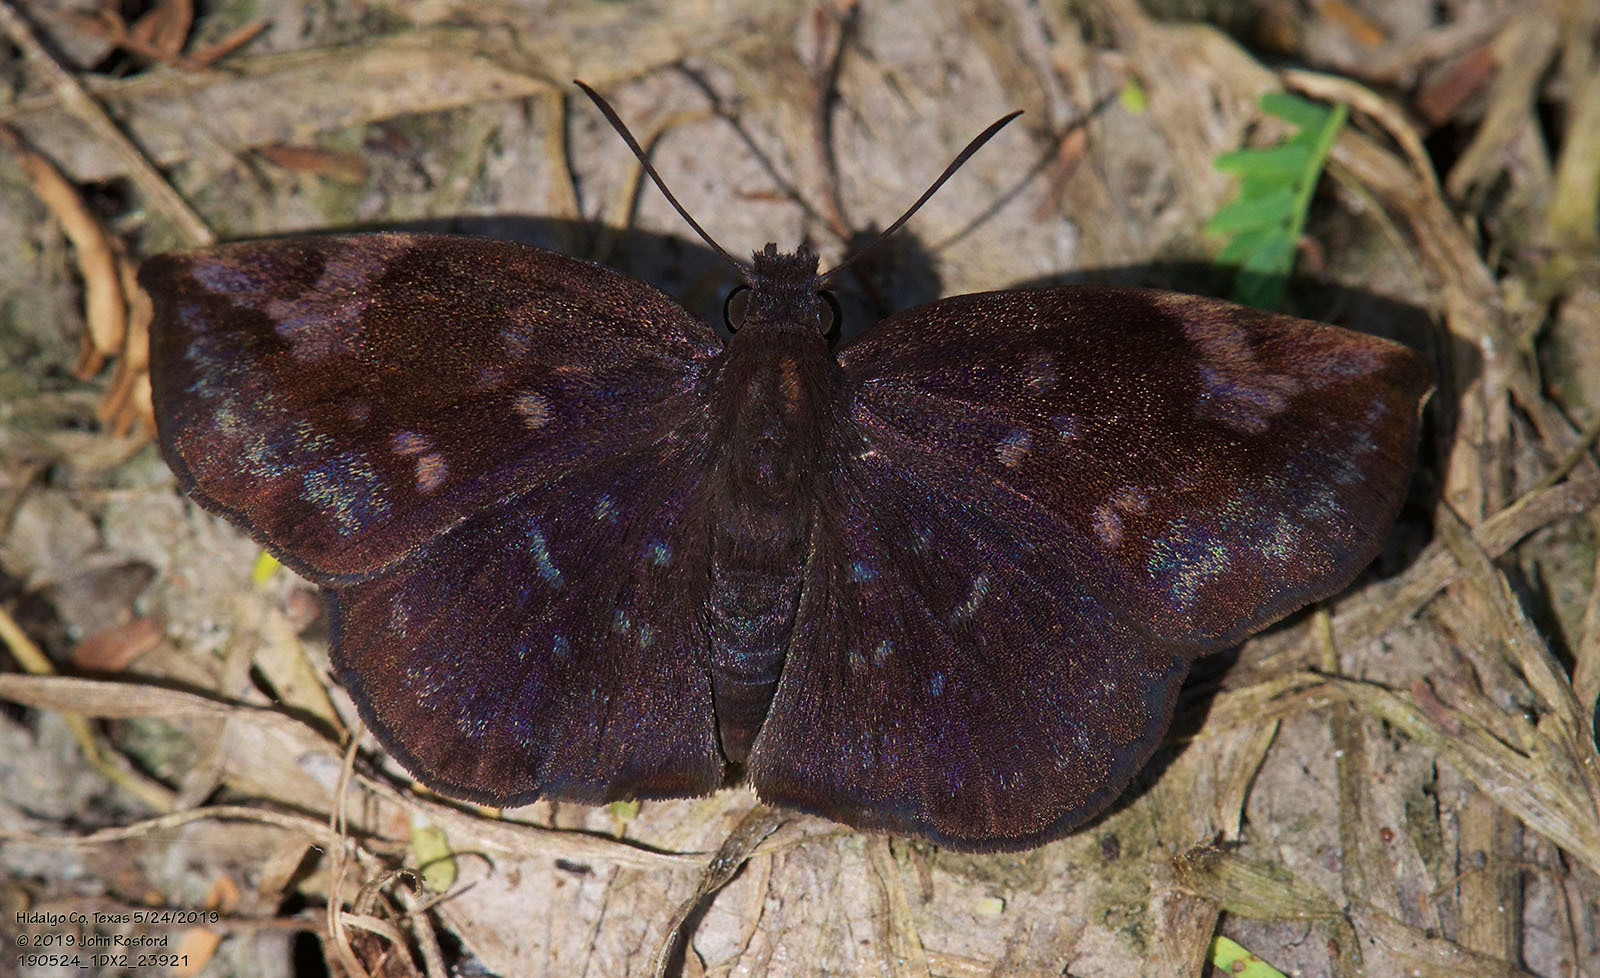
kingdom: Animalia
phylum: Arthropoda
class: Insecta
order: Lepidoptera
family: Hesperiidae
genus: Achlyodes
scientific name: Achlyodes thraso
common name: Sickle-winged skipper
